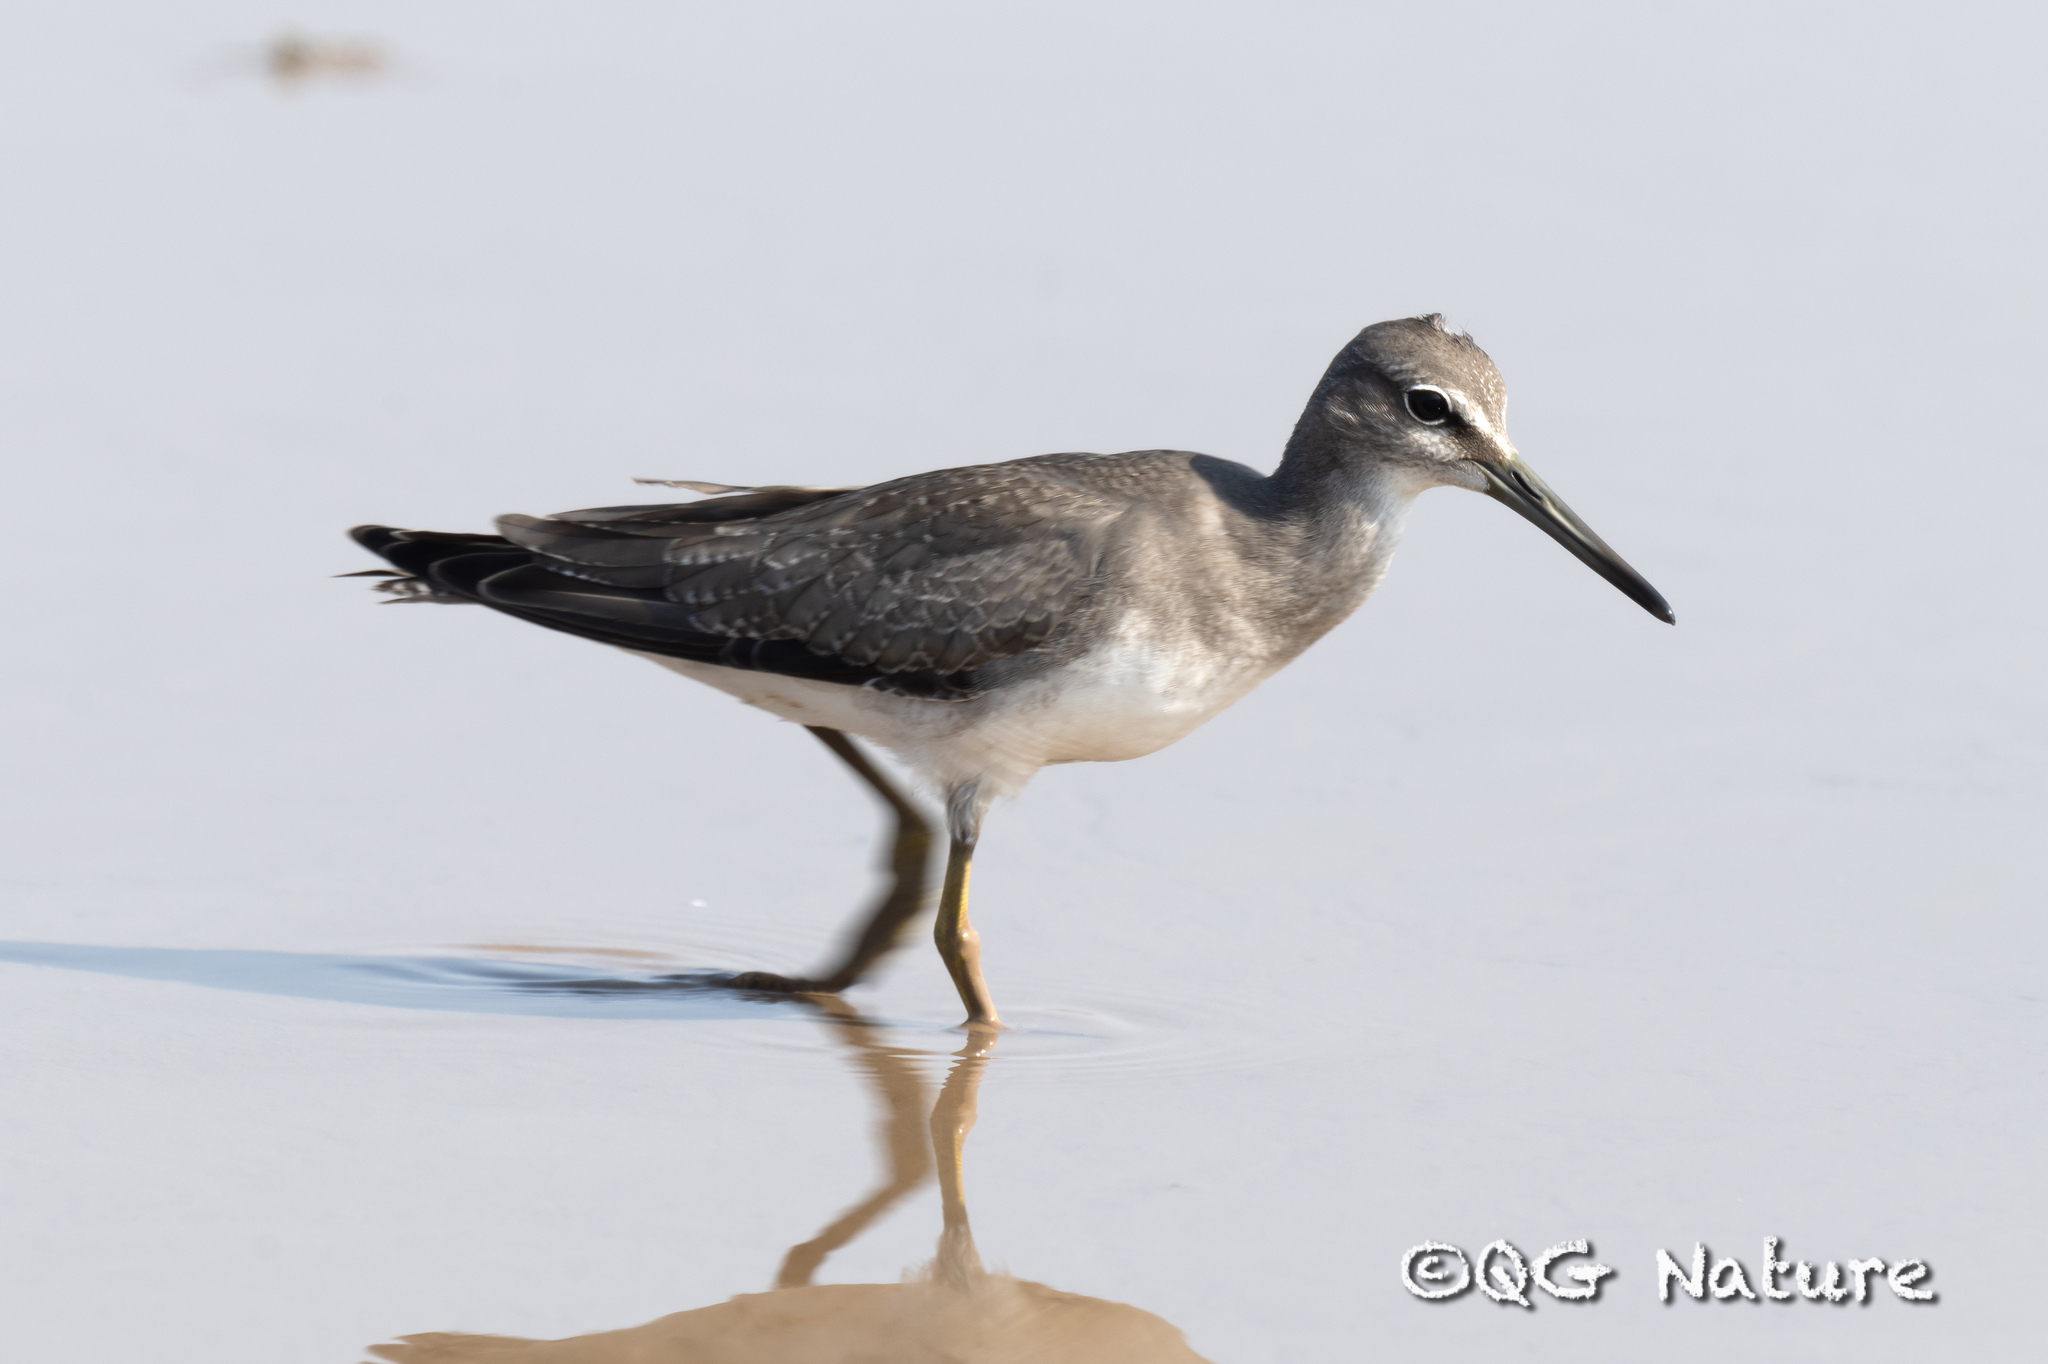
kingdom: Animalia
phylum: Chordata
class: Aves
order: Charadriiformes
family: Scolopacidae
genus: Tringa
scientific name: Tringa brevipes
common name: Grey-tailed tattler
